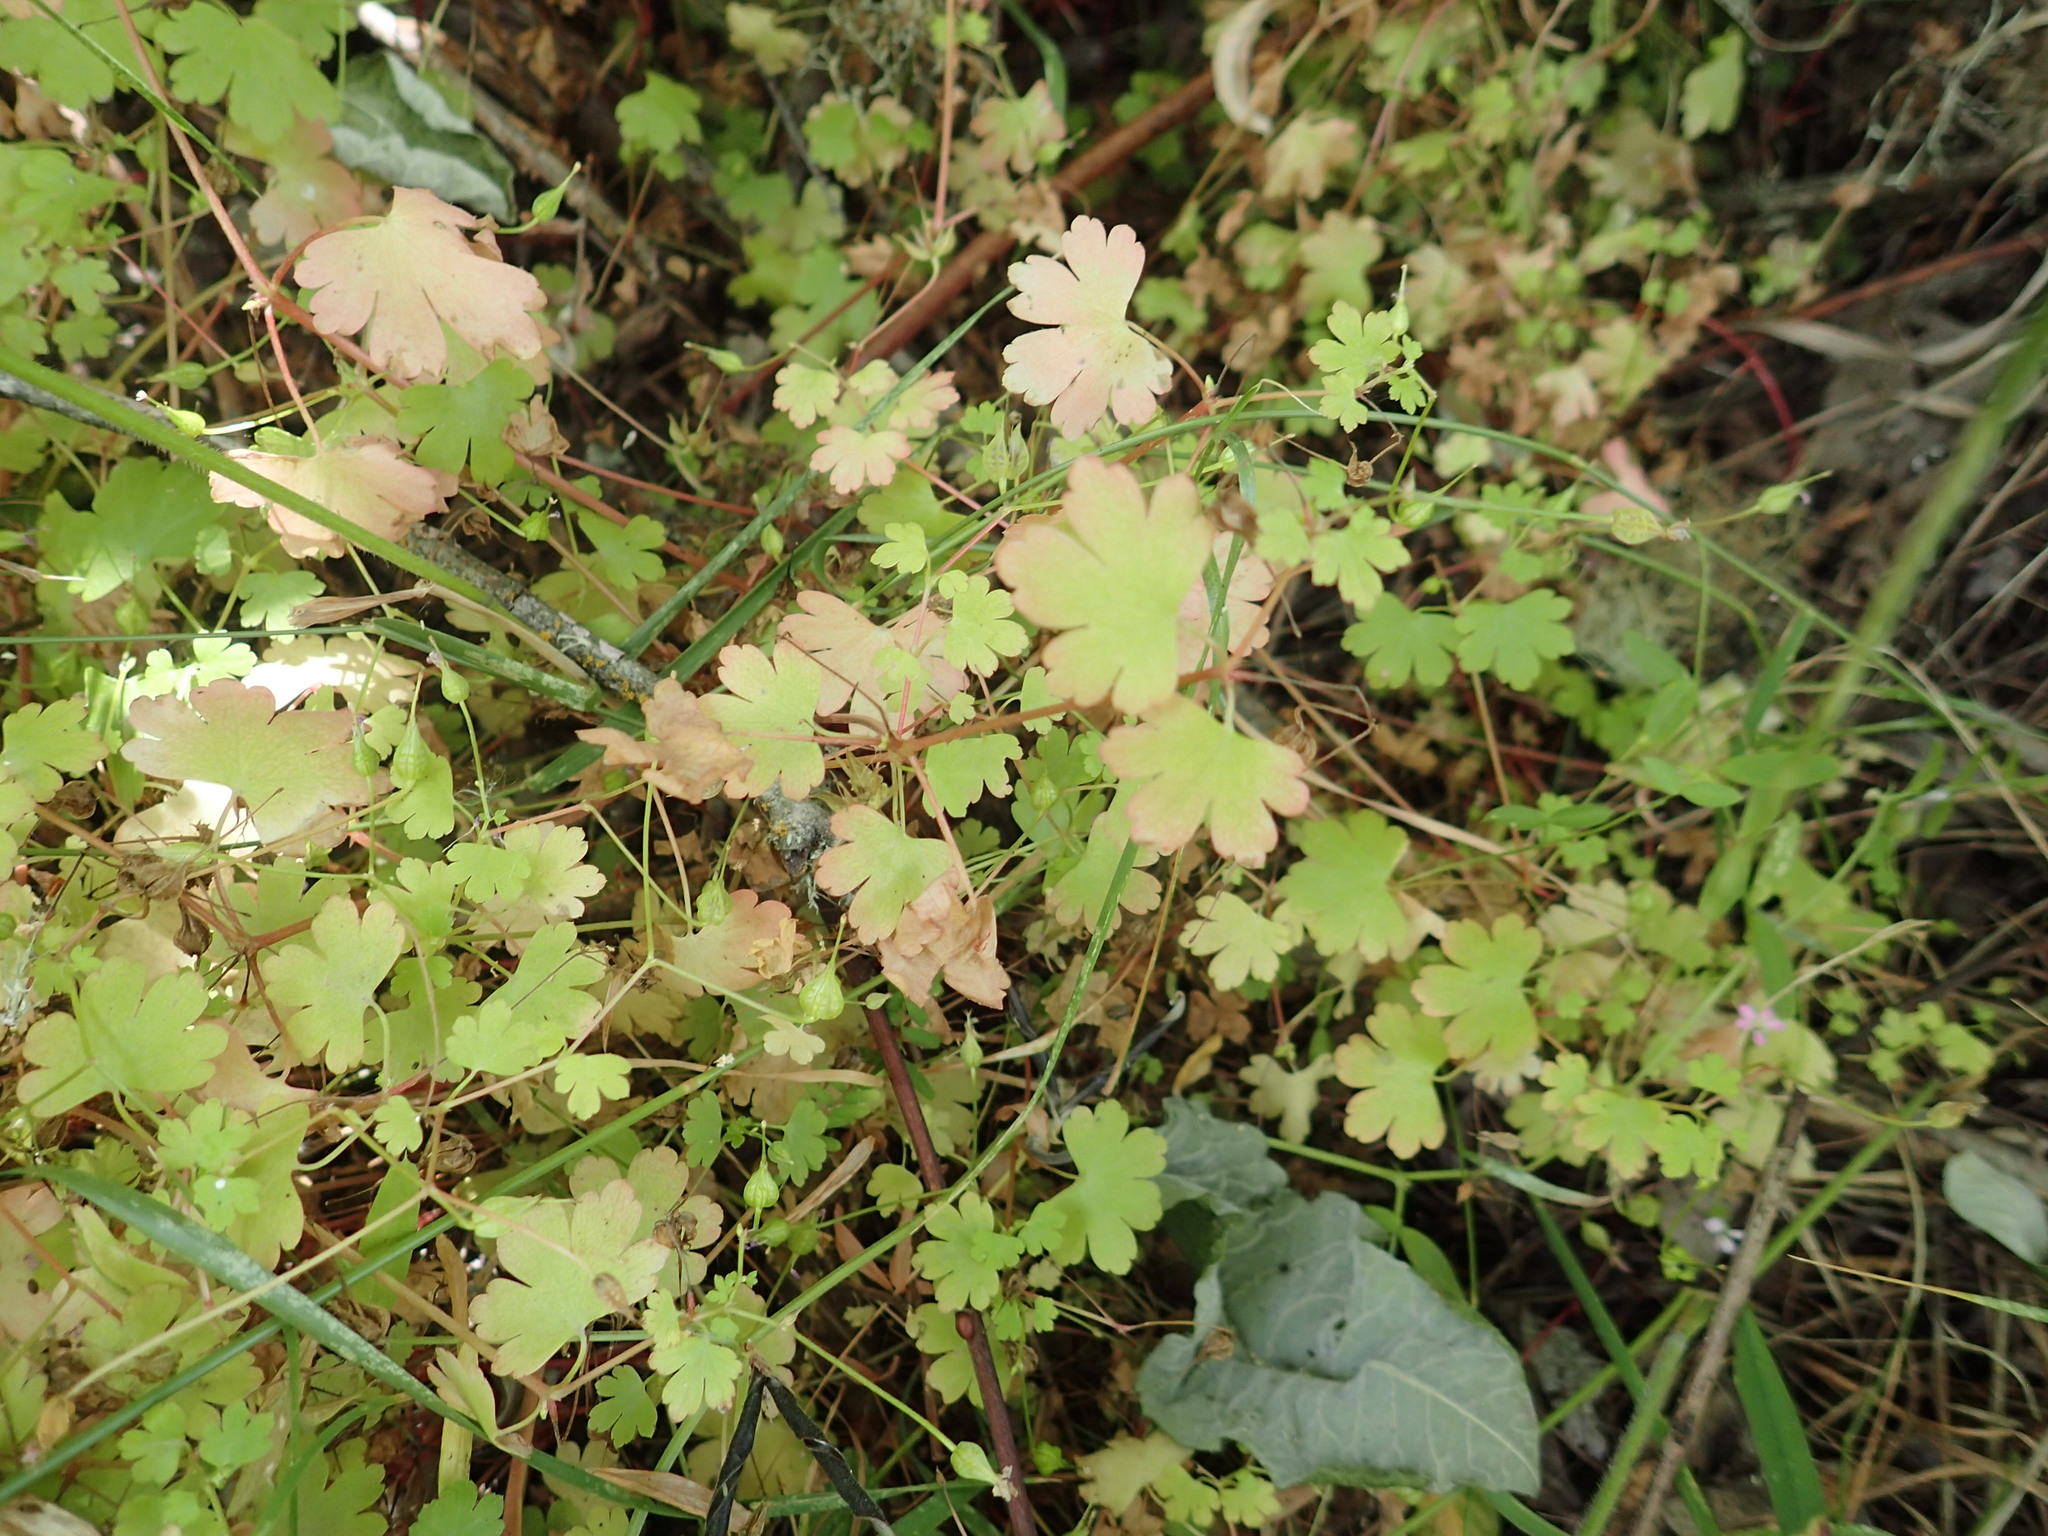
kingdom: Plantae
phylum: Tracheophyta
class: Magnoliopsida
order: Geraniales
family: Geraniaceae
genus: Geranium
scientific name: Geranium lucidum
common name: Shining crane's-bill
